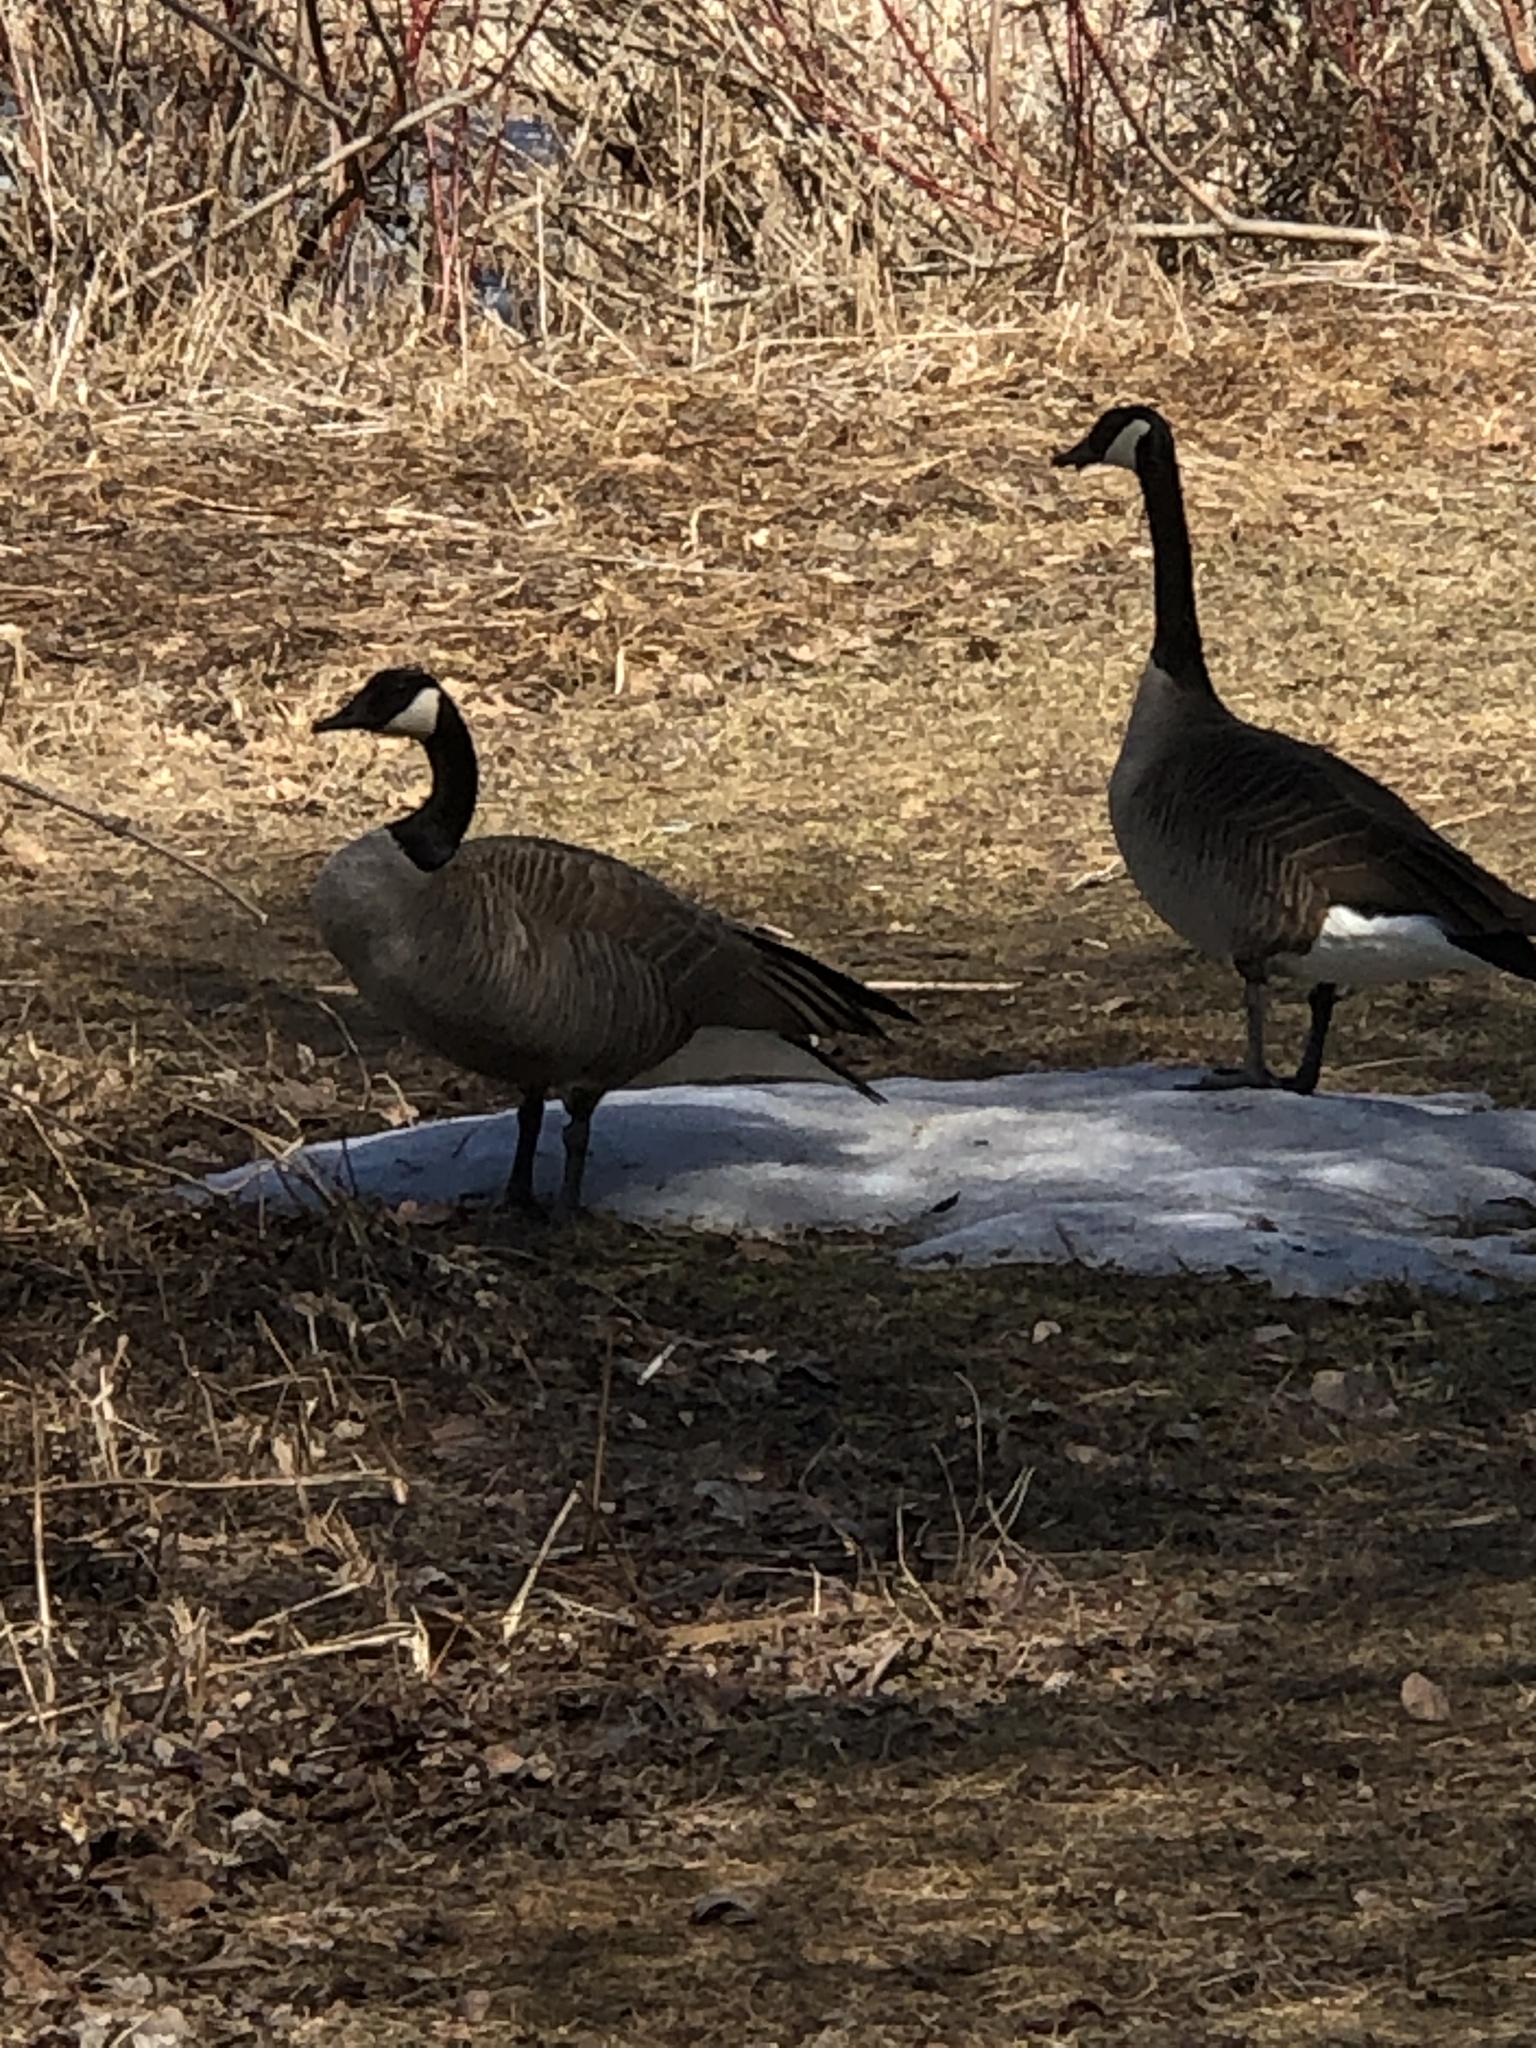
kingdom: Animalia
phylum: Chordata
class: Aves
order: Anseriformes
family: Anatidae
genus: Branta
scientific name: Branta canadensis
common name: Canada goose
